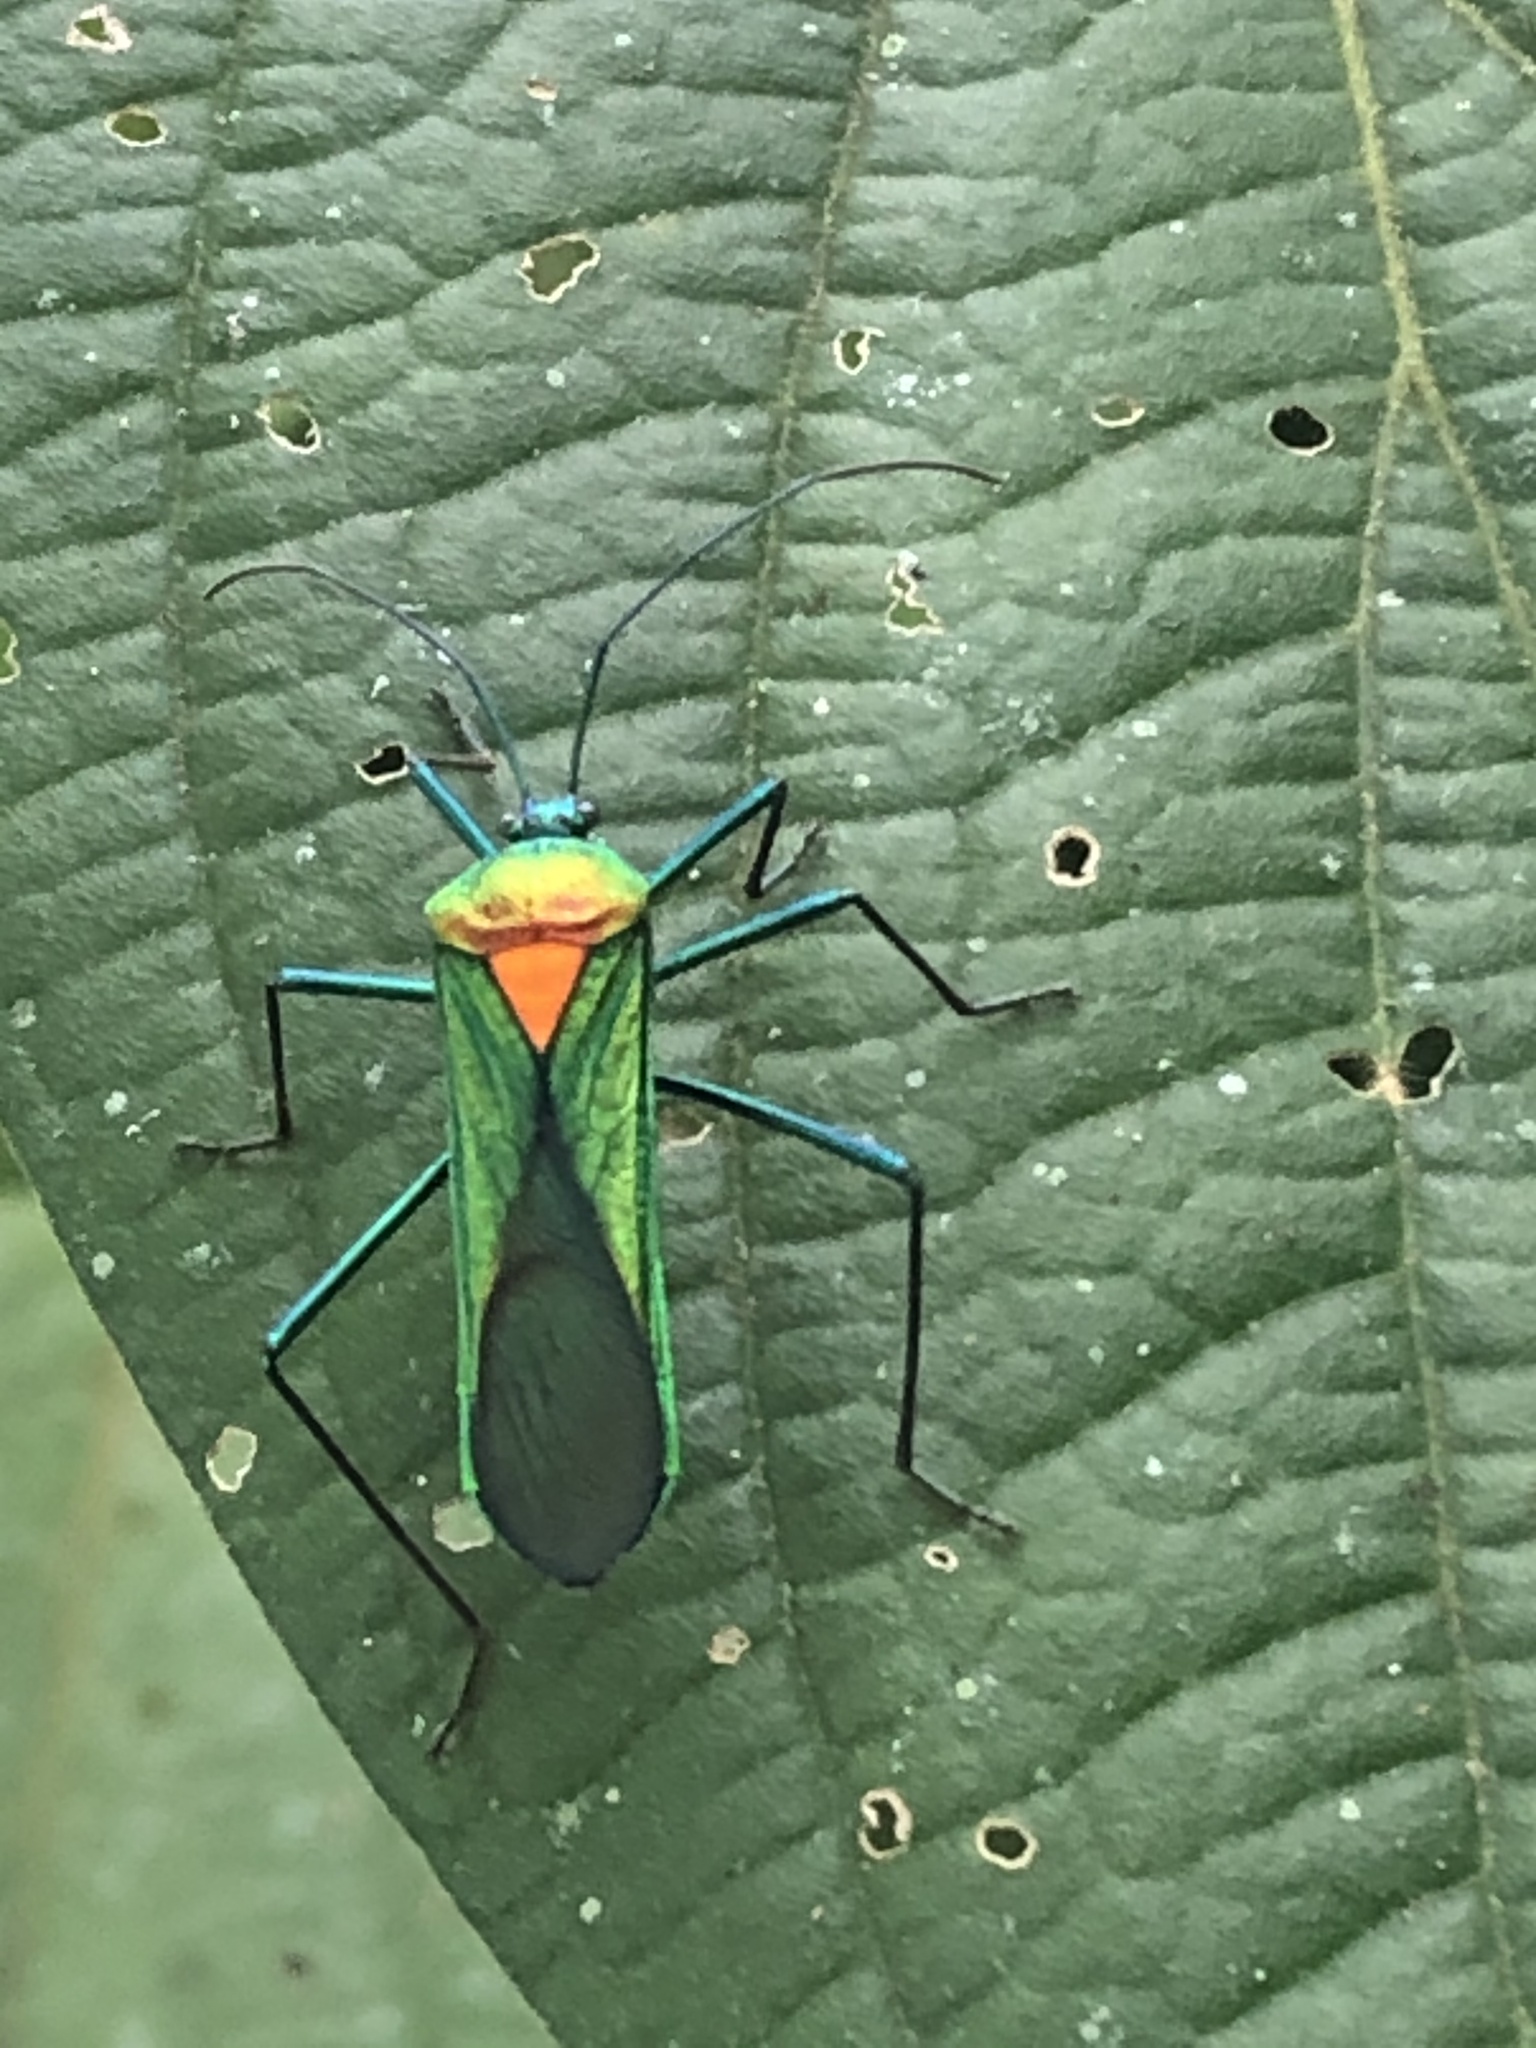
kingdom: Animalia
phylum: Arthropoda
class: Insecta
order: Hemiptera
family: Coreidae
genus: Stenoprasia
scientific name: Stenoprasia bicolora
